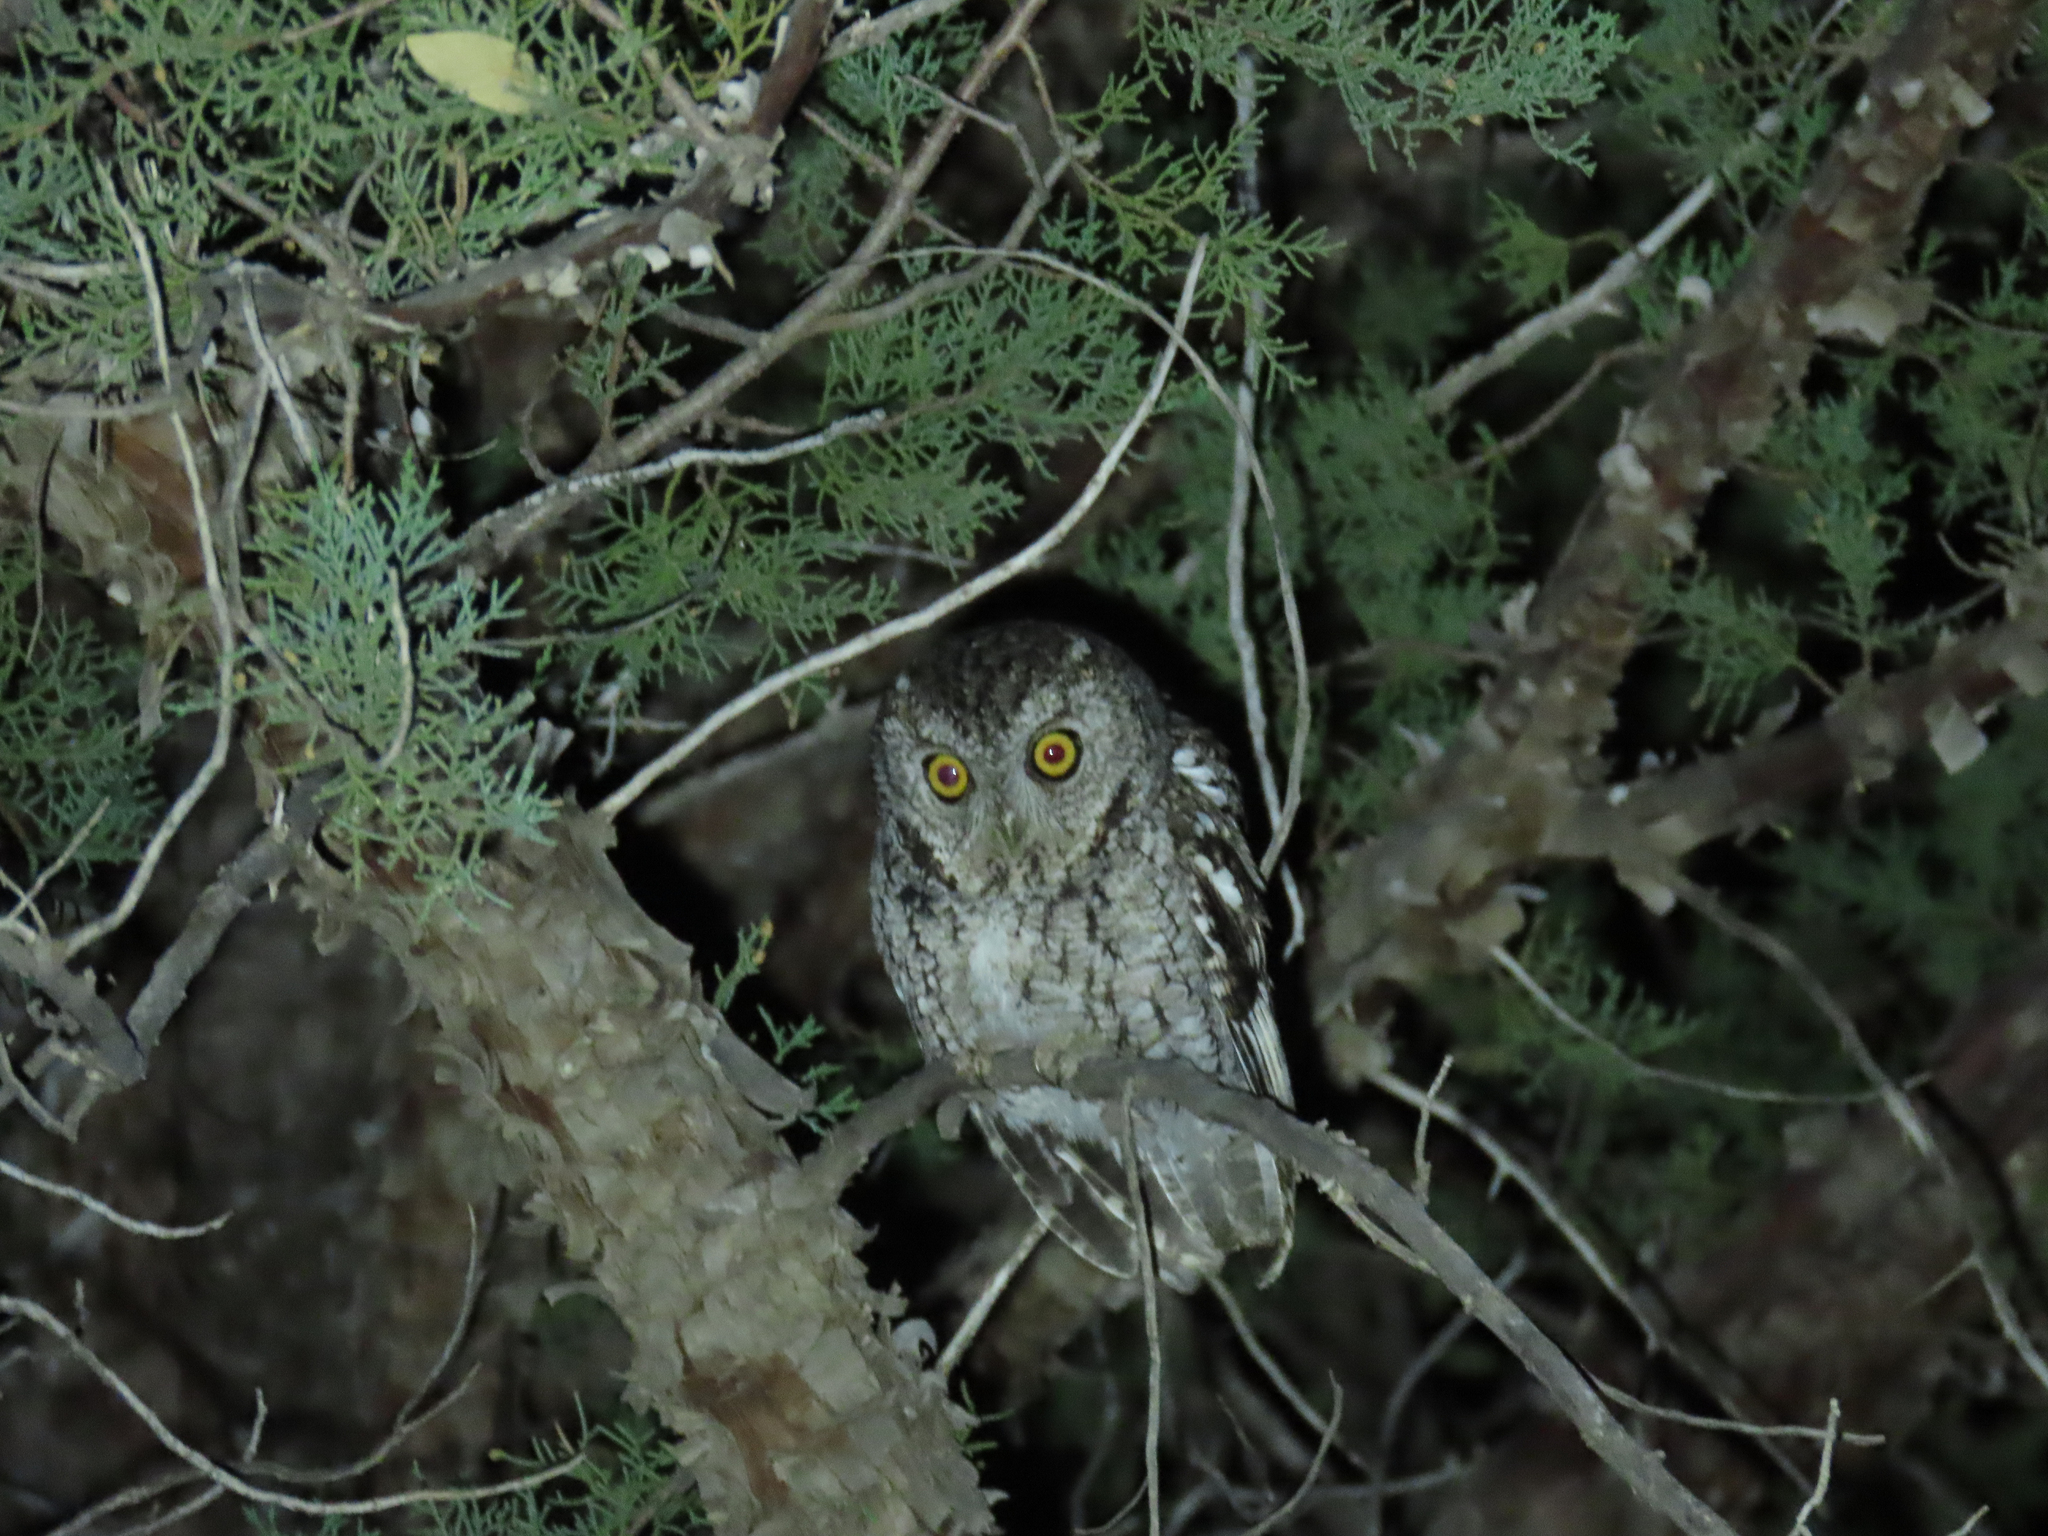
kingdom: Animalia
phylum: Chordata
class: Aves
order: Strigiformes
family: Strigidae
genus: Megascops
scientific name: Megascops trichopsis
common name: Whiskered screech-owl
